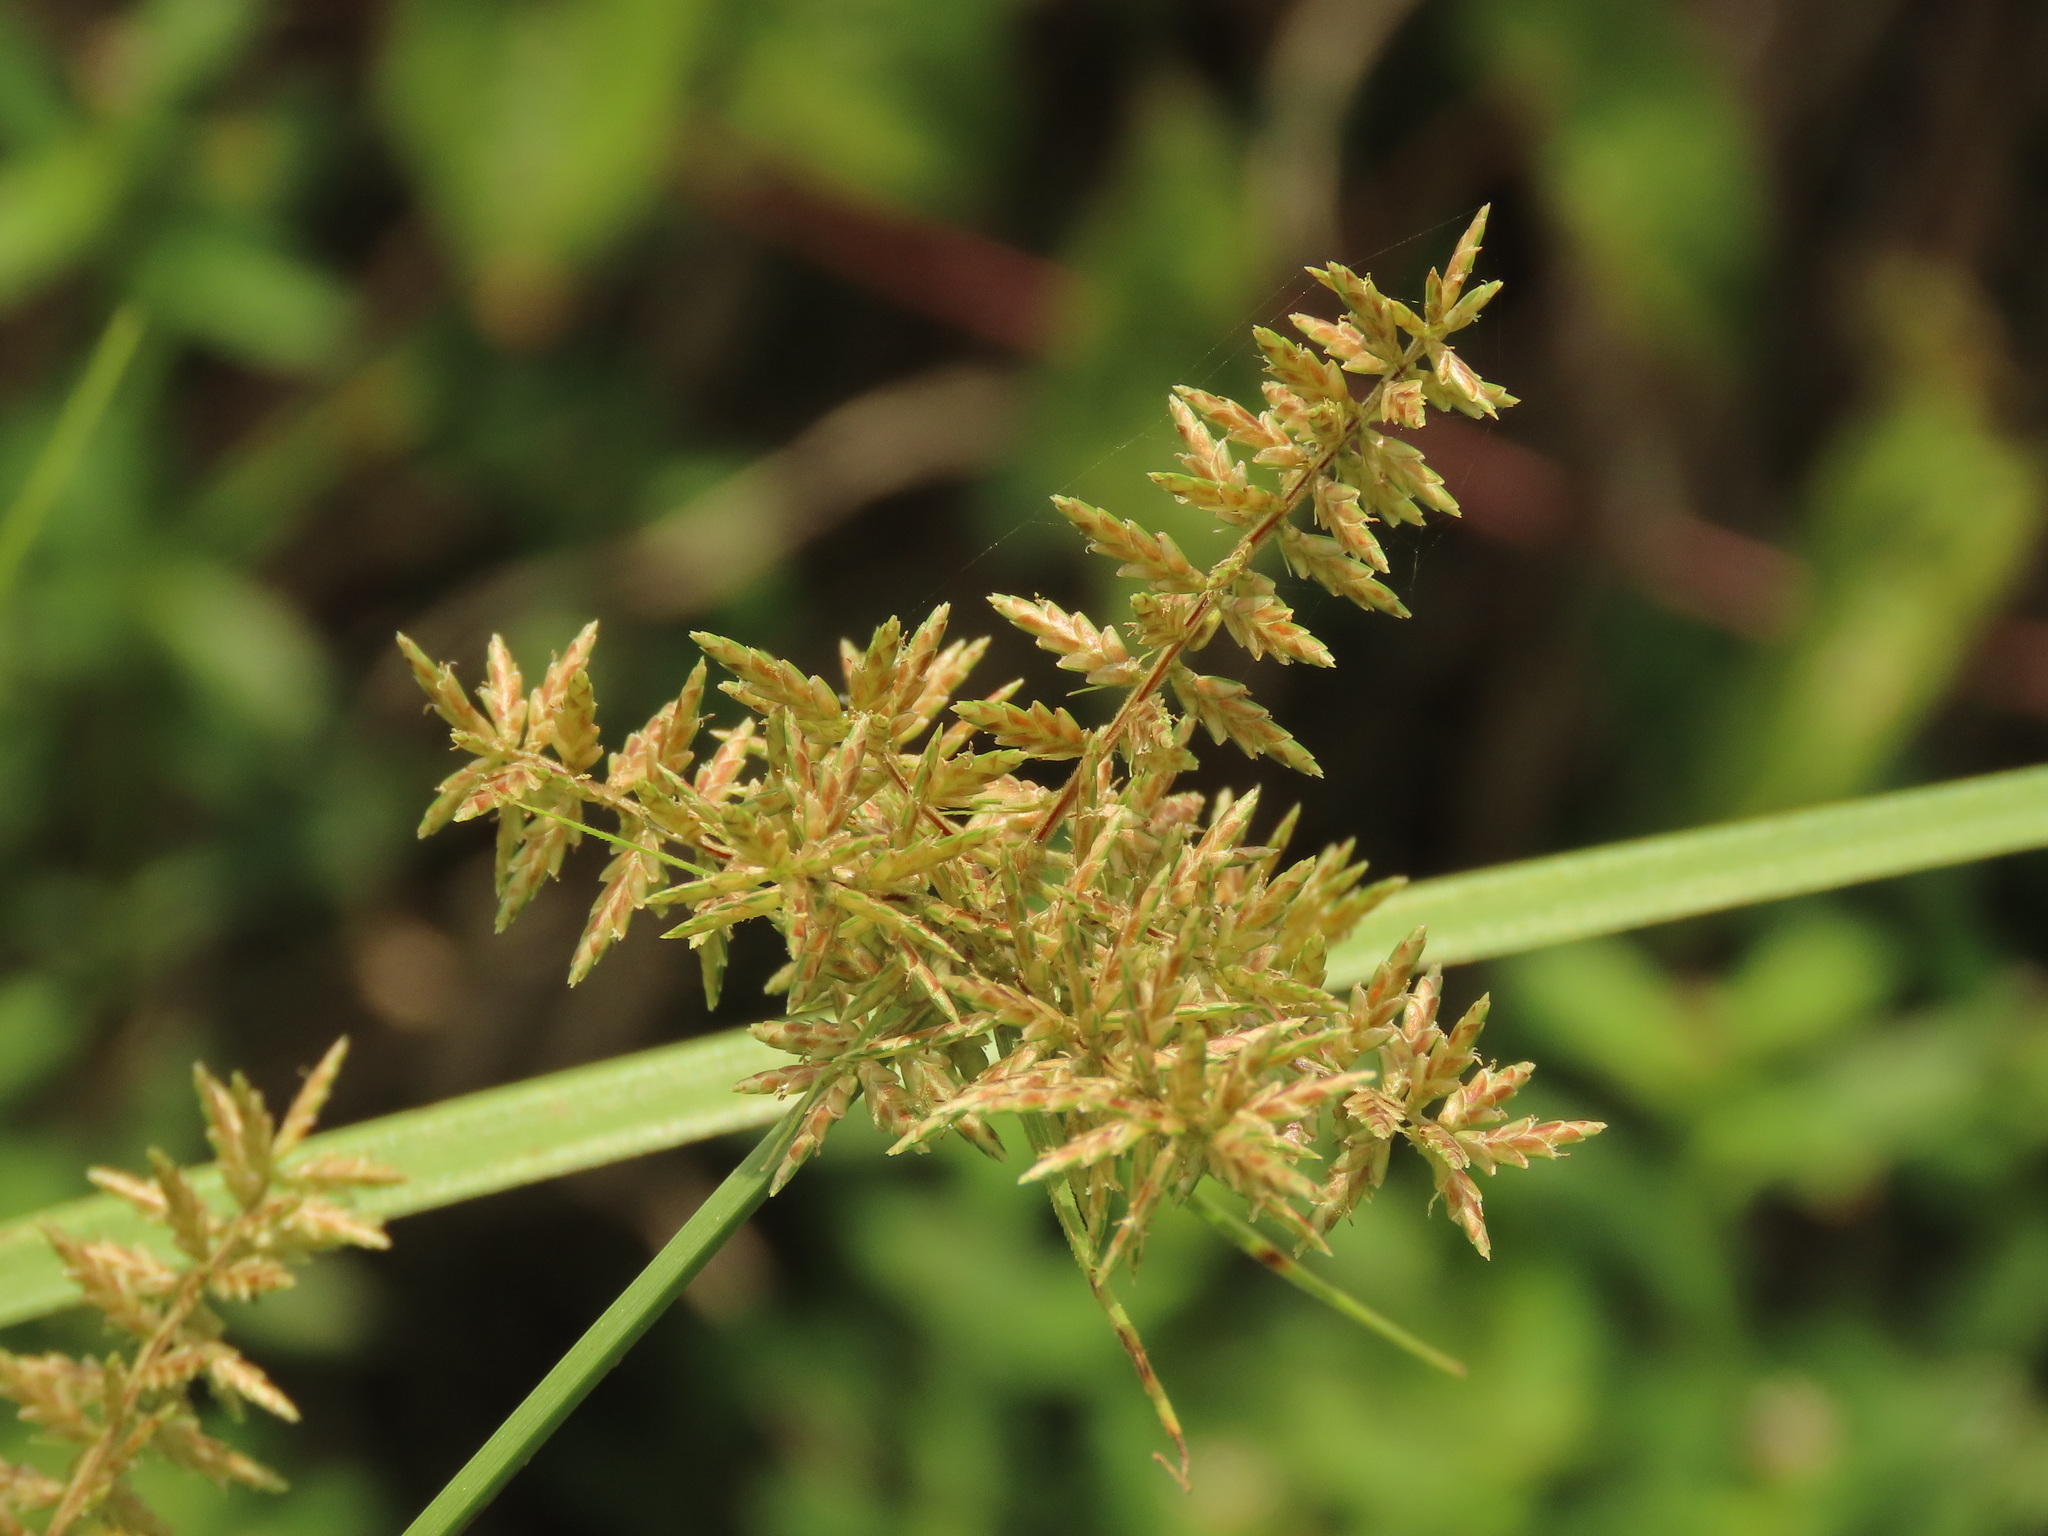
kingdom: Plantae
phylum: Tracheophyta
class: Liliopsida
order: Poales
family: Cyperaceae
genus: Cyperus
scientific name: Cyperus pilosus
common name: Fuzzy flatsedge
